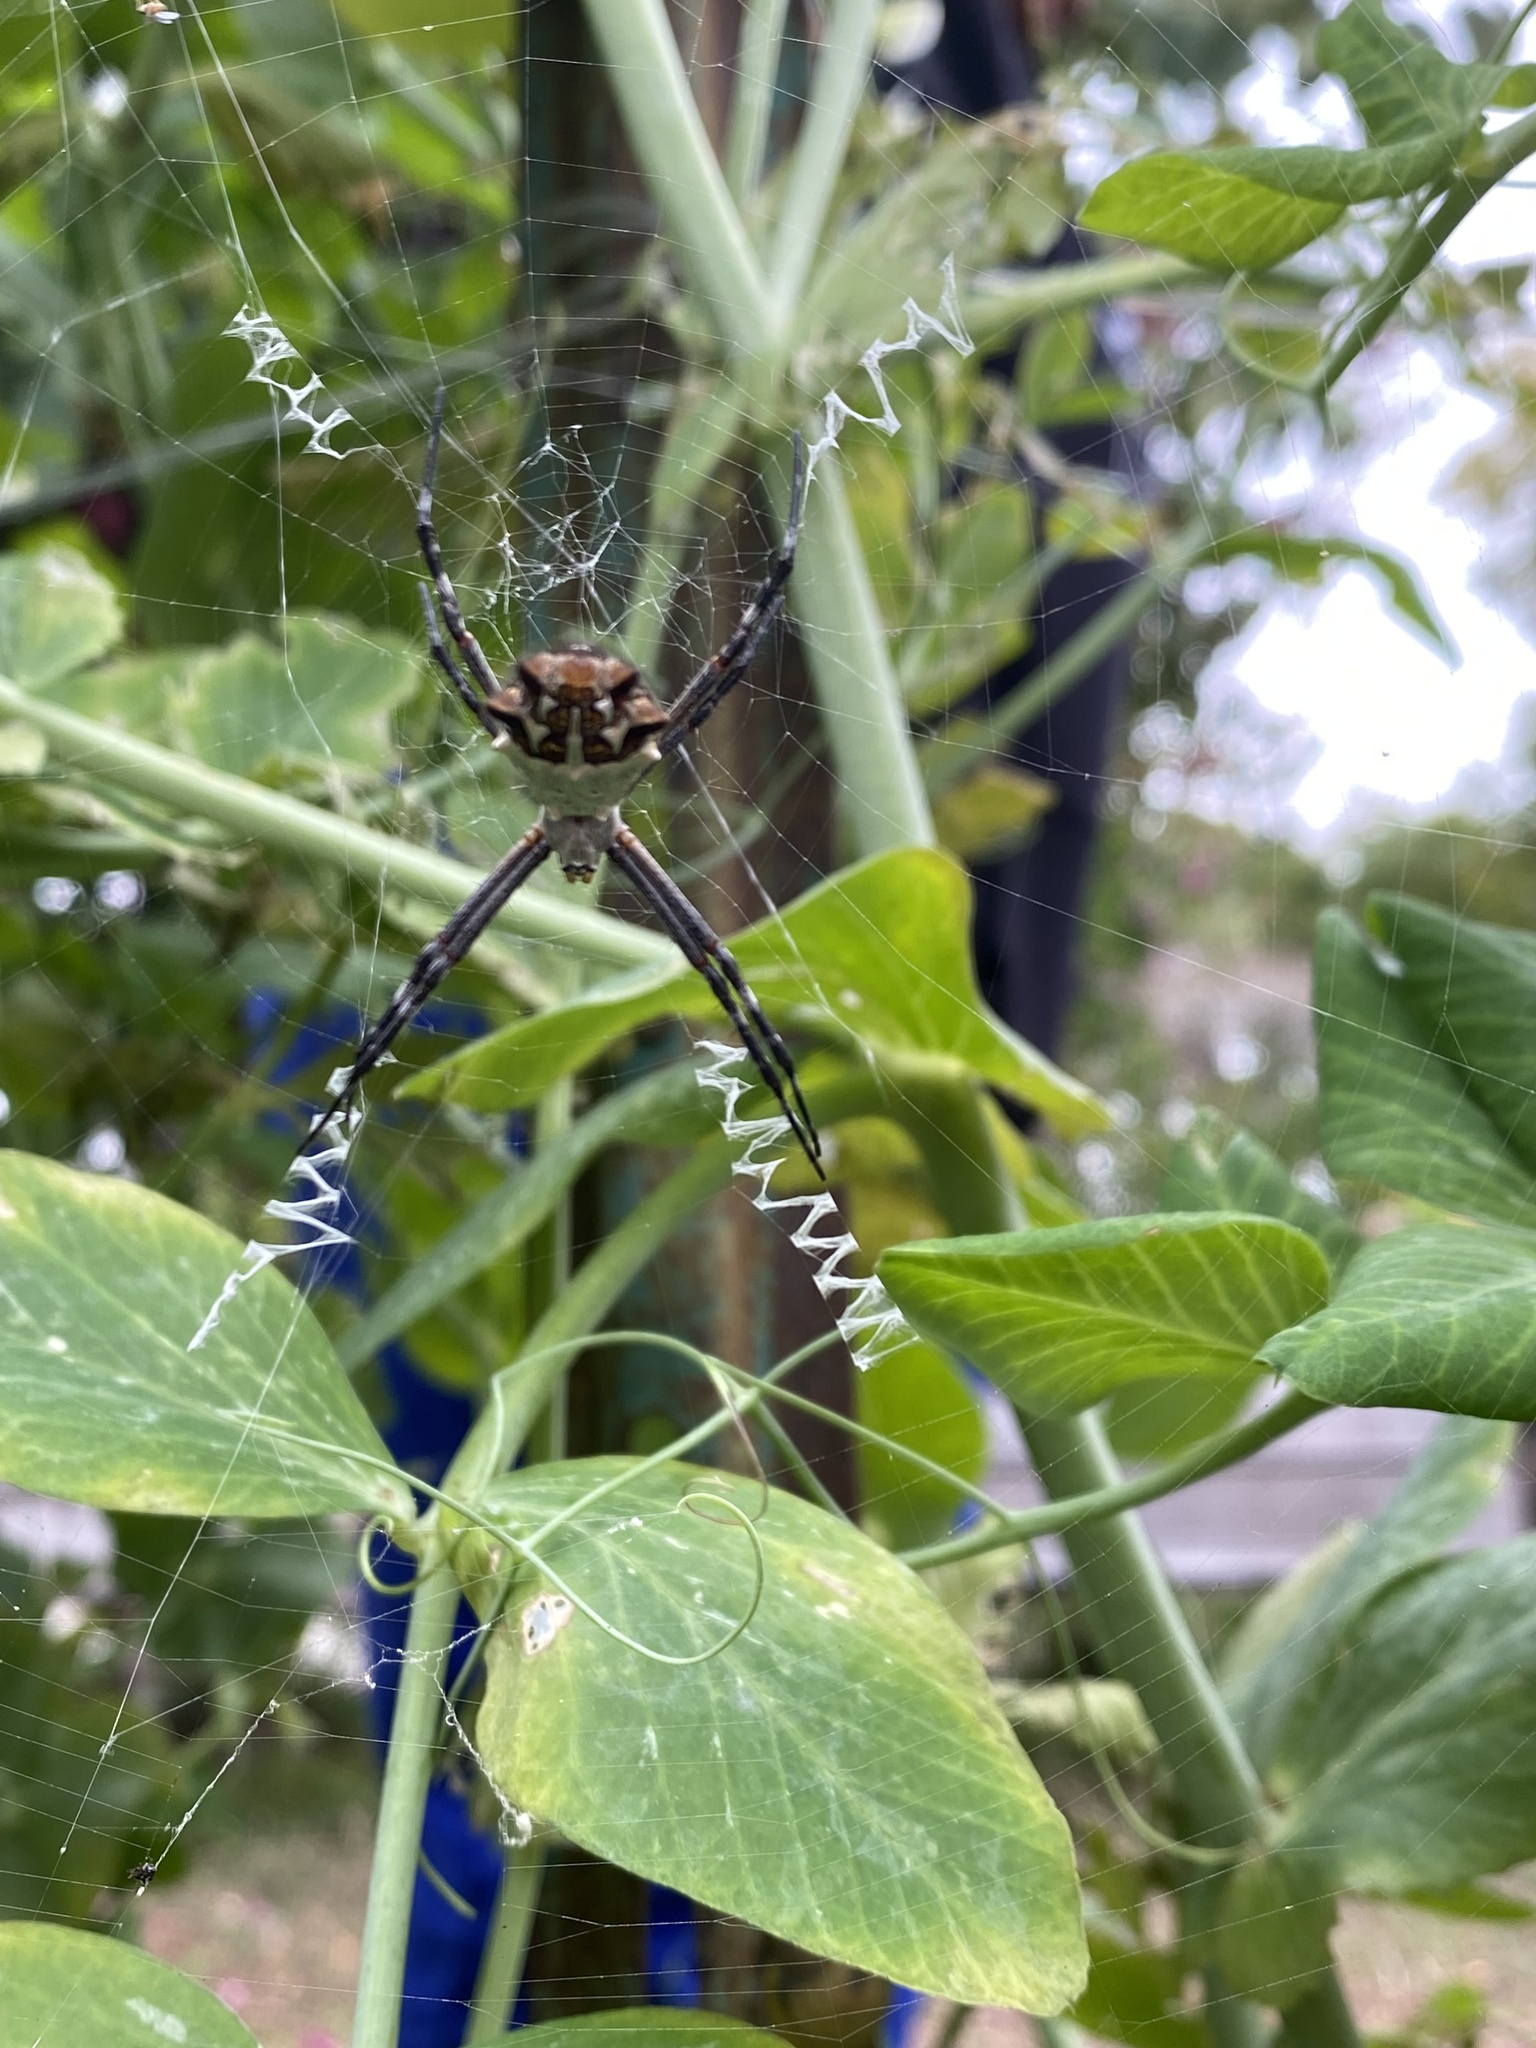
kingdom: Animalia
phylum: Arthropoda
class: Arachnida
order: Araneae
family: Araneidae
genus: Argiope
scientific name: Argiope argentata
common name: Orb weavers
